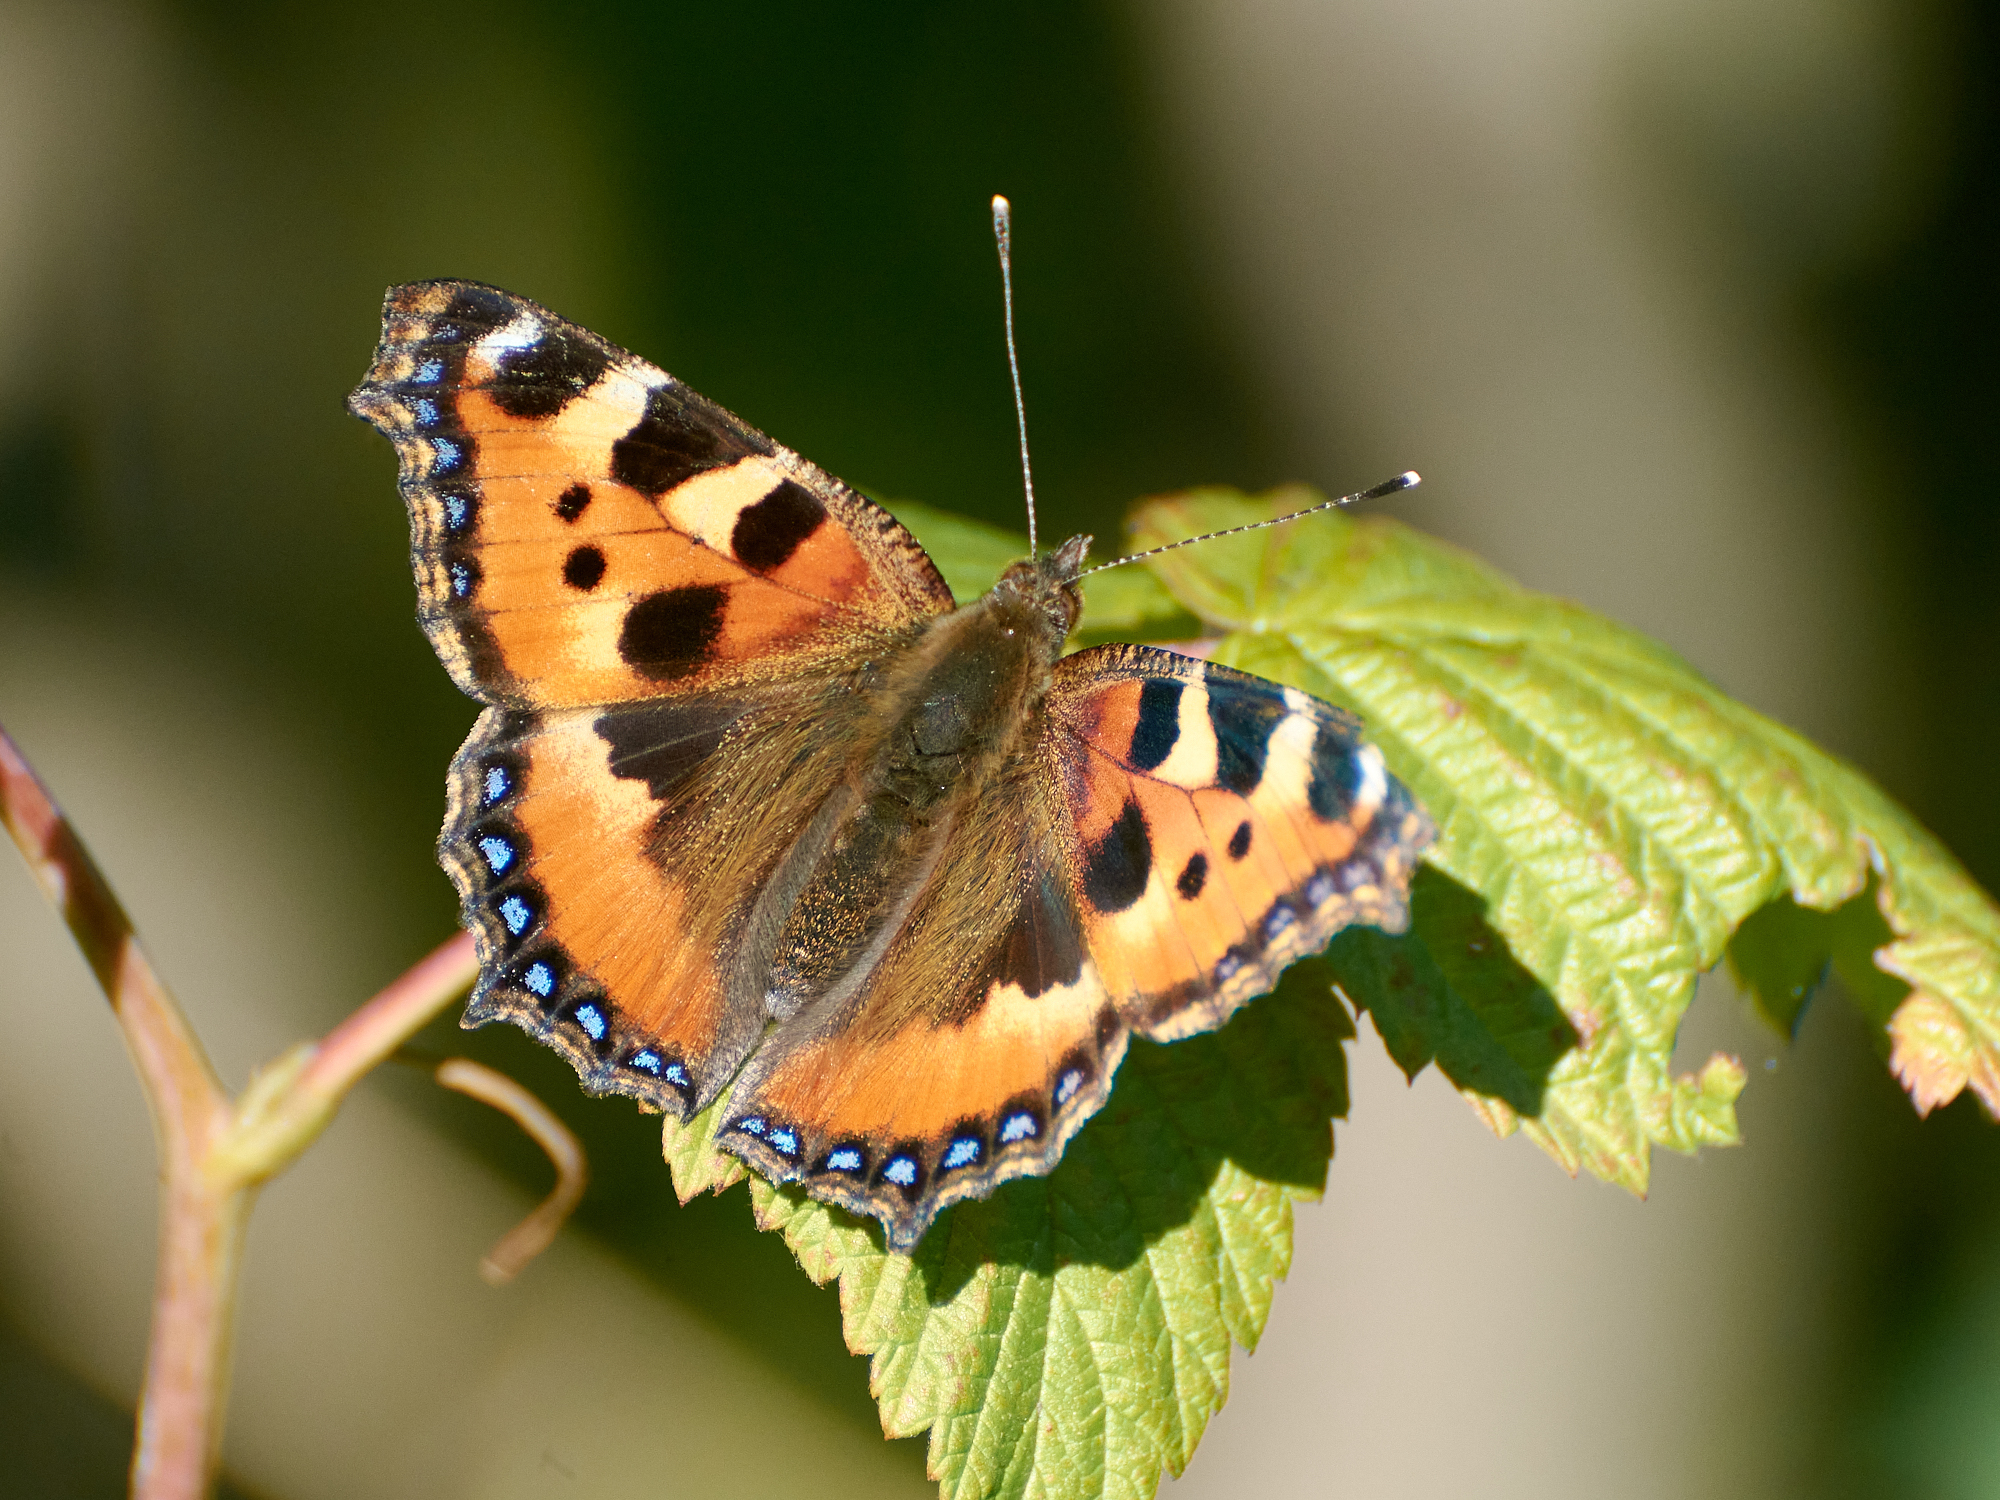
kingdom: Animalia
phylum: Arthropoda
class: Insecta
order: Lepidoptera
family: Nymphalidae
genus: Aglais
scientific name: Aglais urticae
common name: Small tortoiseshell
